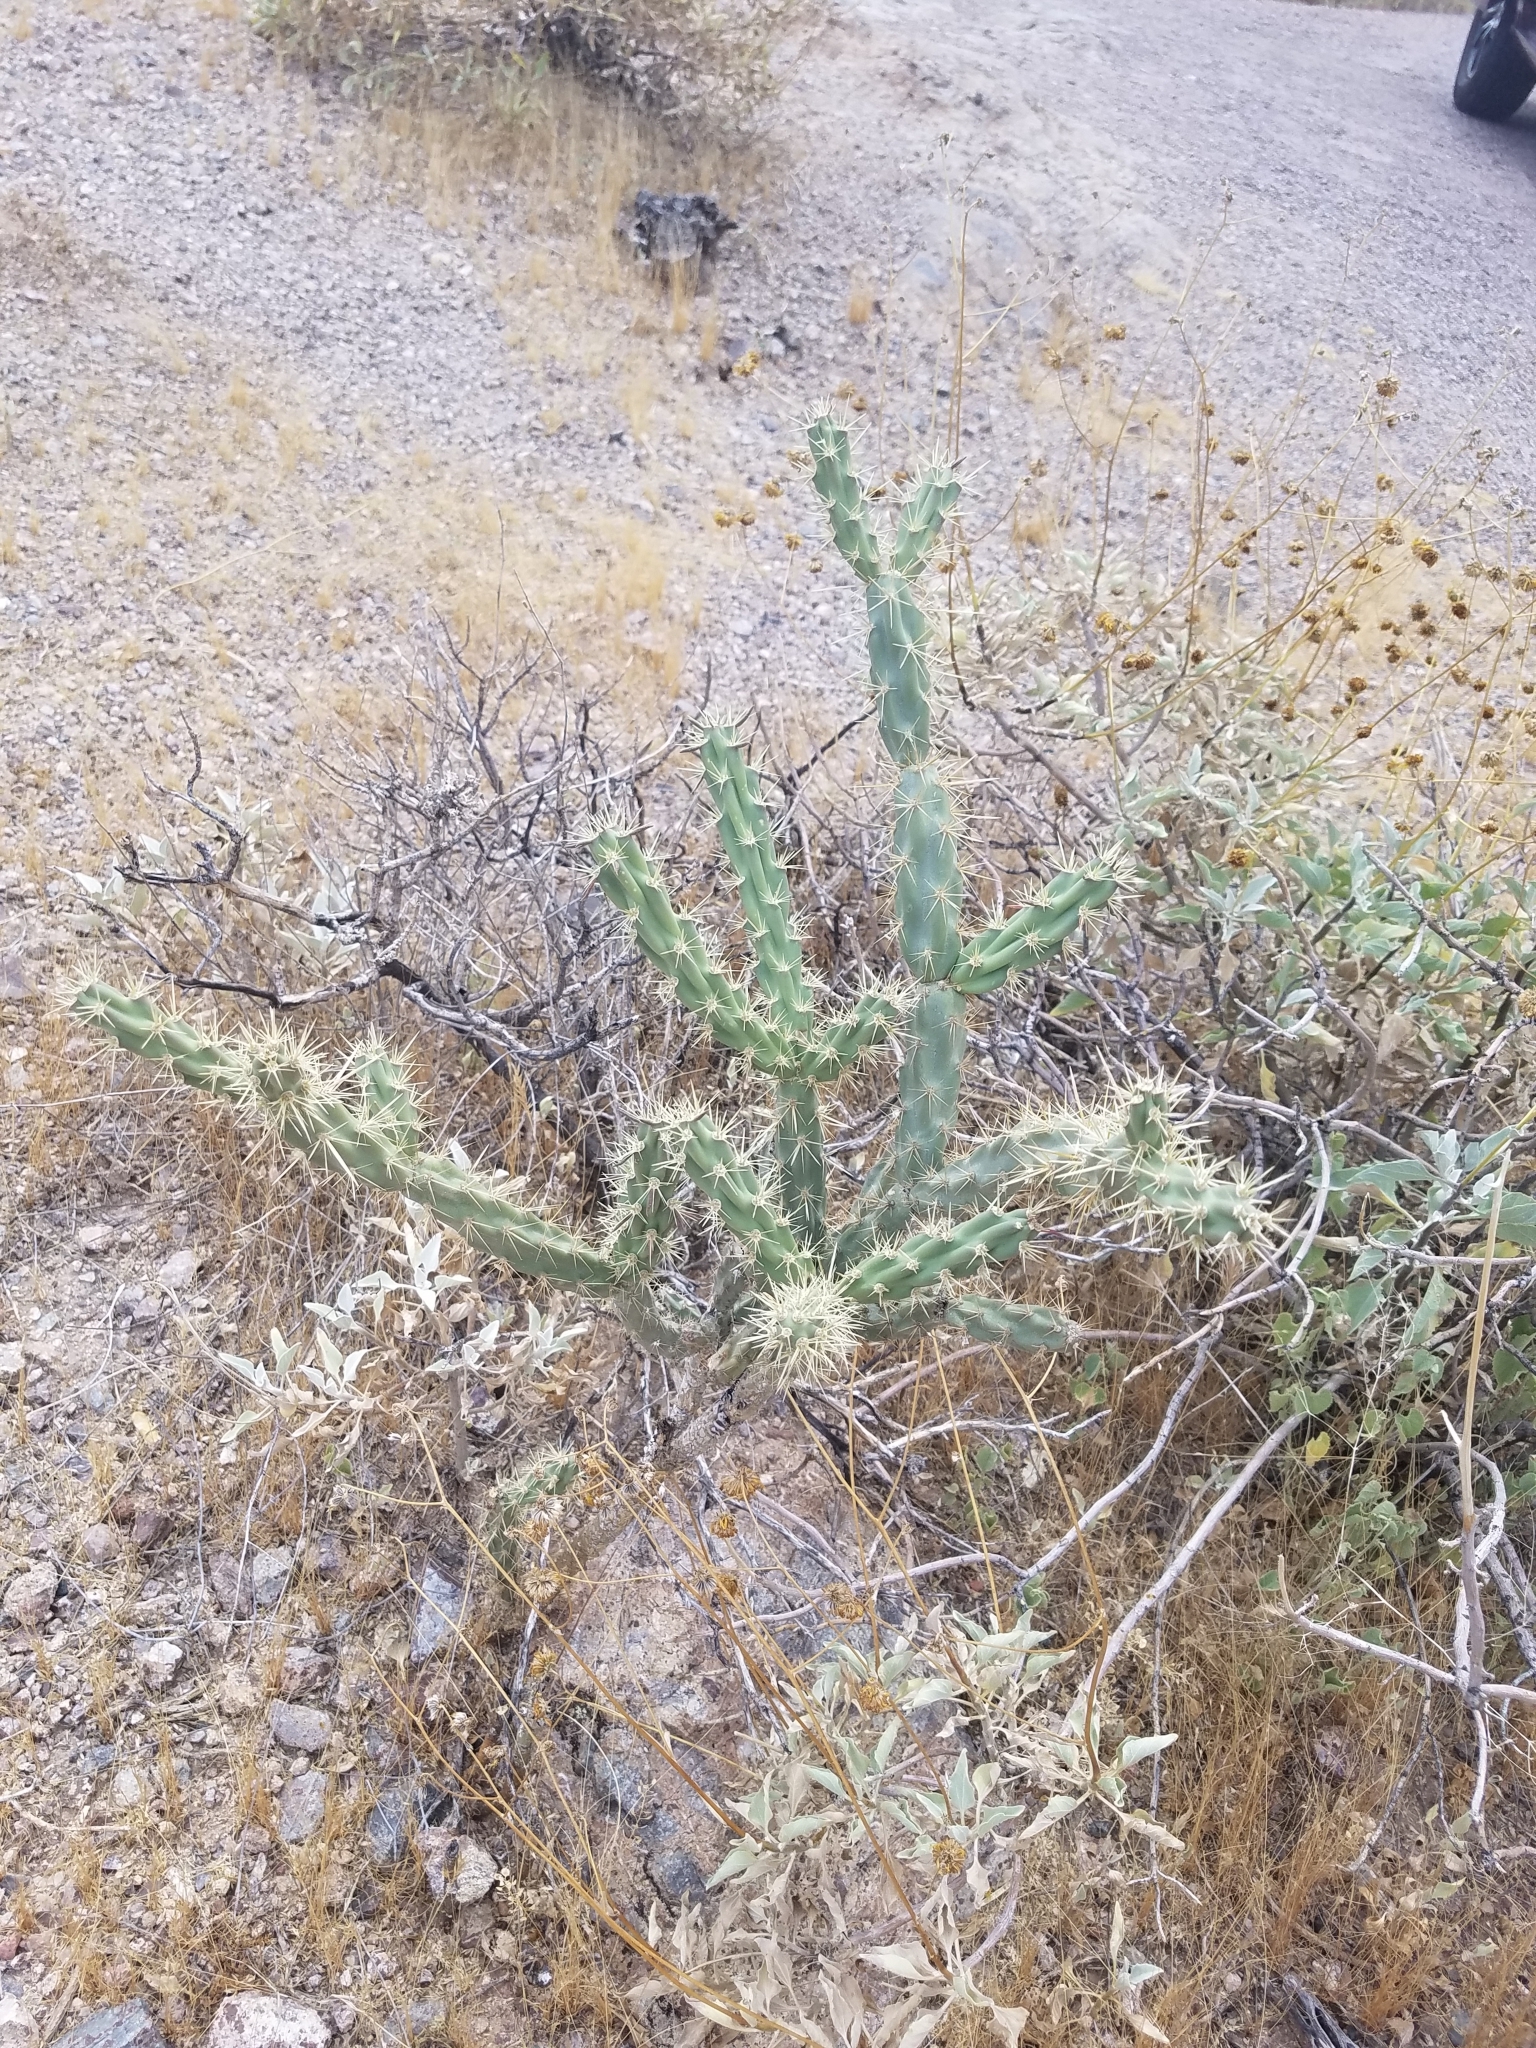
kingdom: Plantae
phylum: Tracheophyta
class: Magnoliopsida
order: Caryophyllales
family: Cactaceae
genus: Cylindropuntia
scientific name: Cylindropuntia acanthocarpa
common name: Buckhorn cholla
